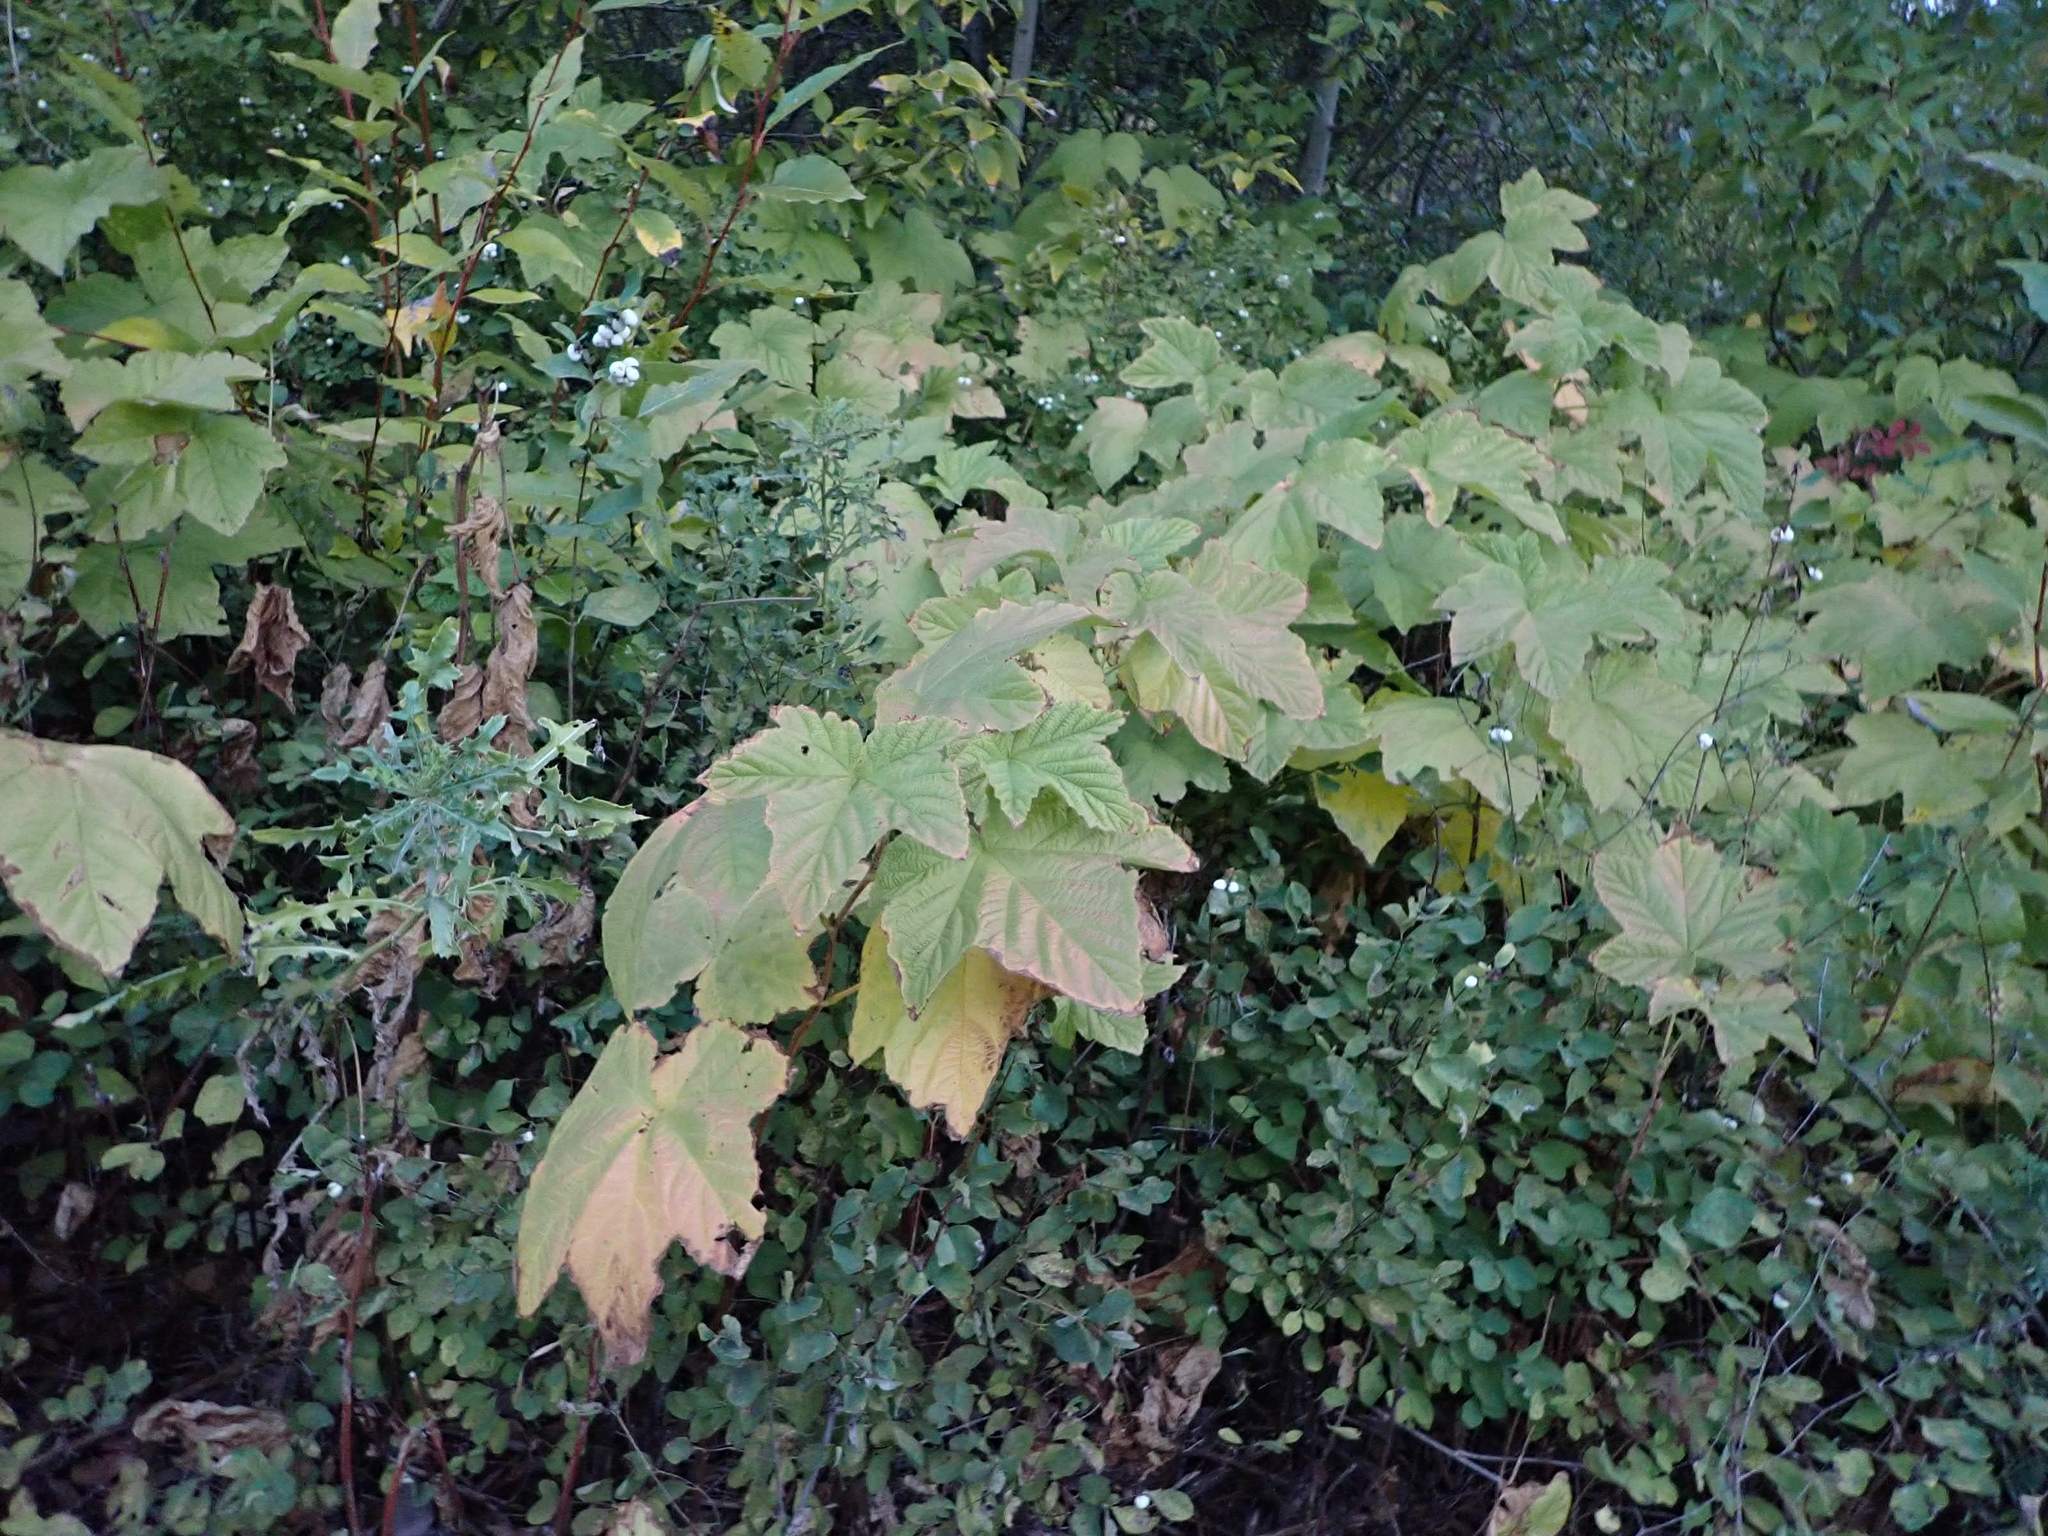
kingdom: Plantae
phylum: Tracheophyta
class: Magnoliopsida
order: Rosales
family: Rosaceae
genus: Rubus
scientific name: Rubus parviflorus
